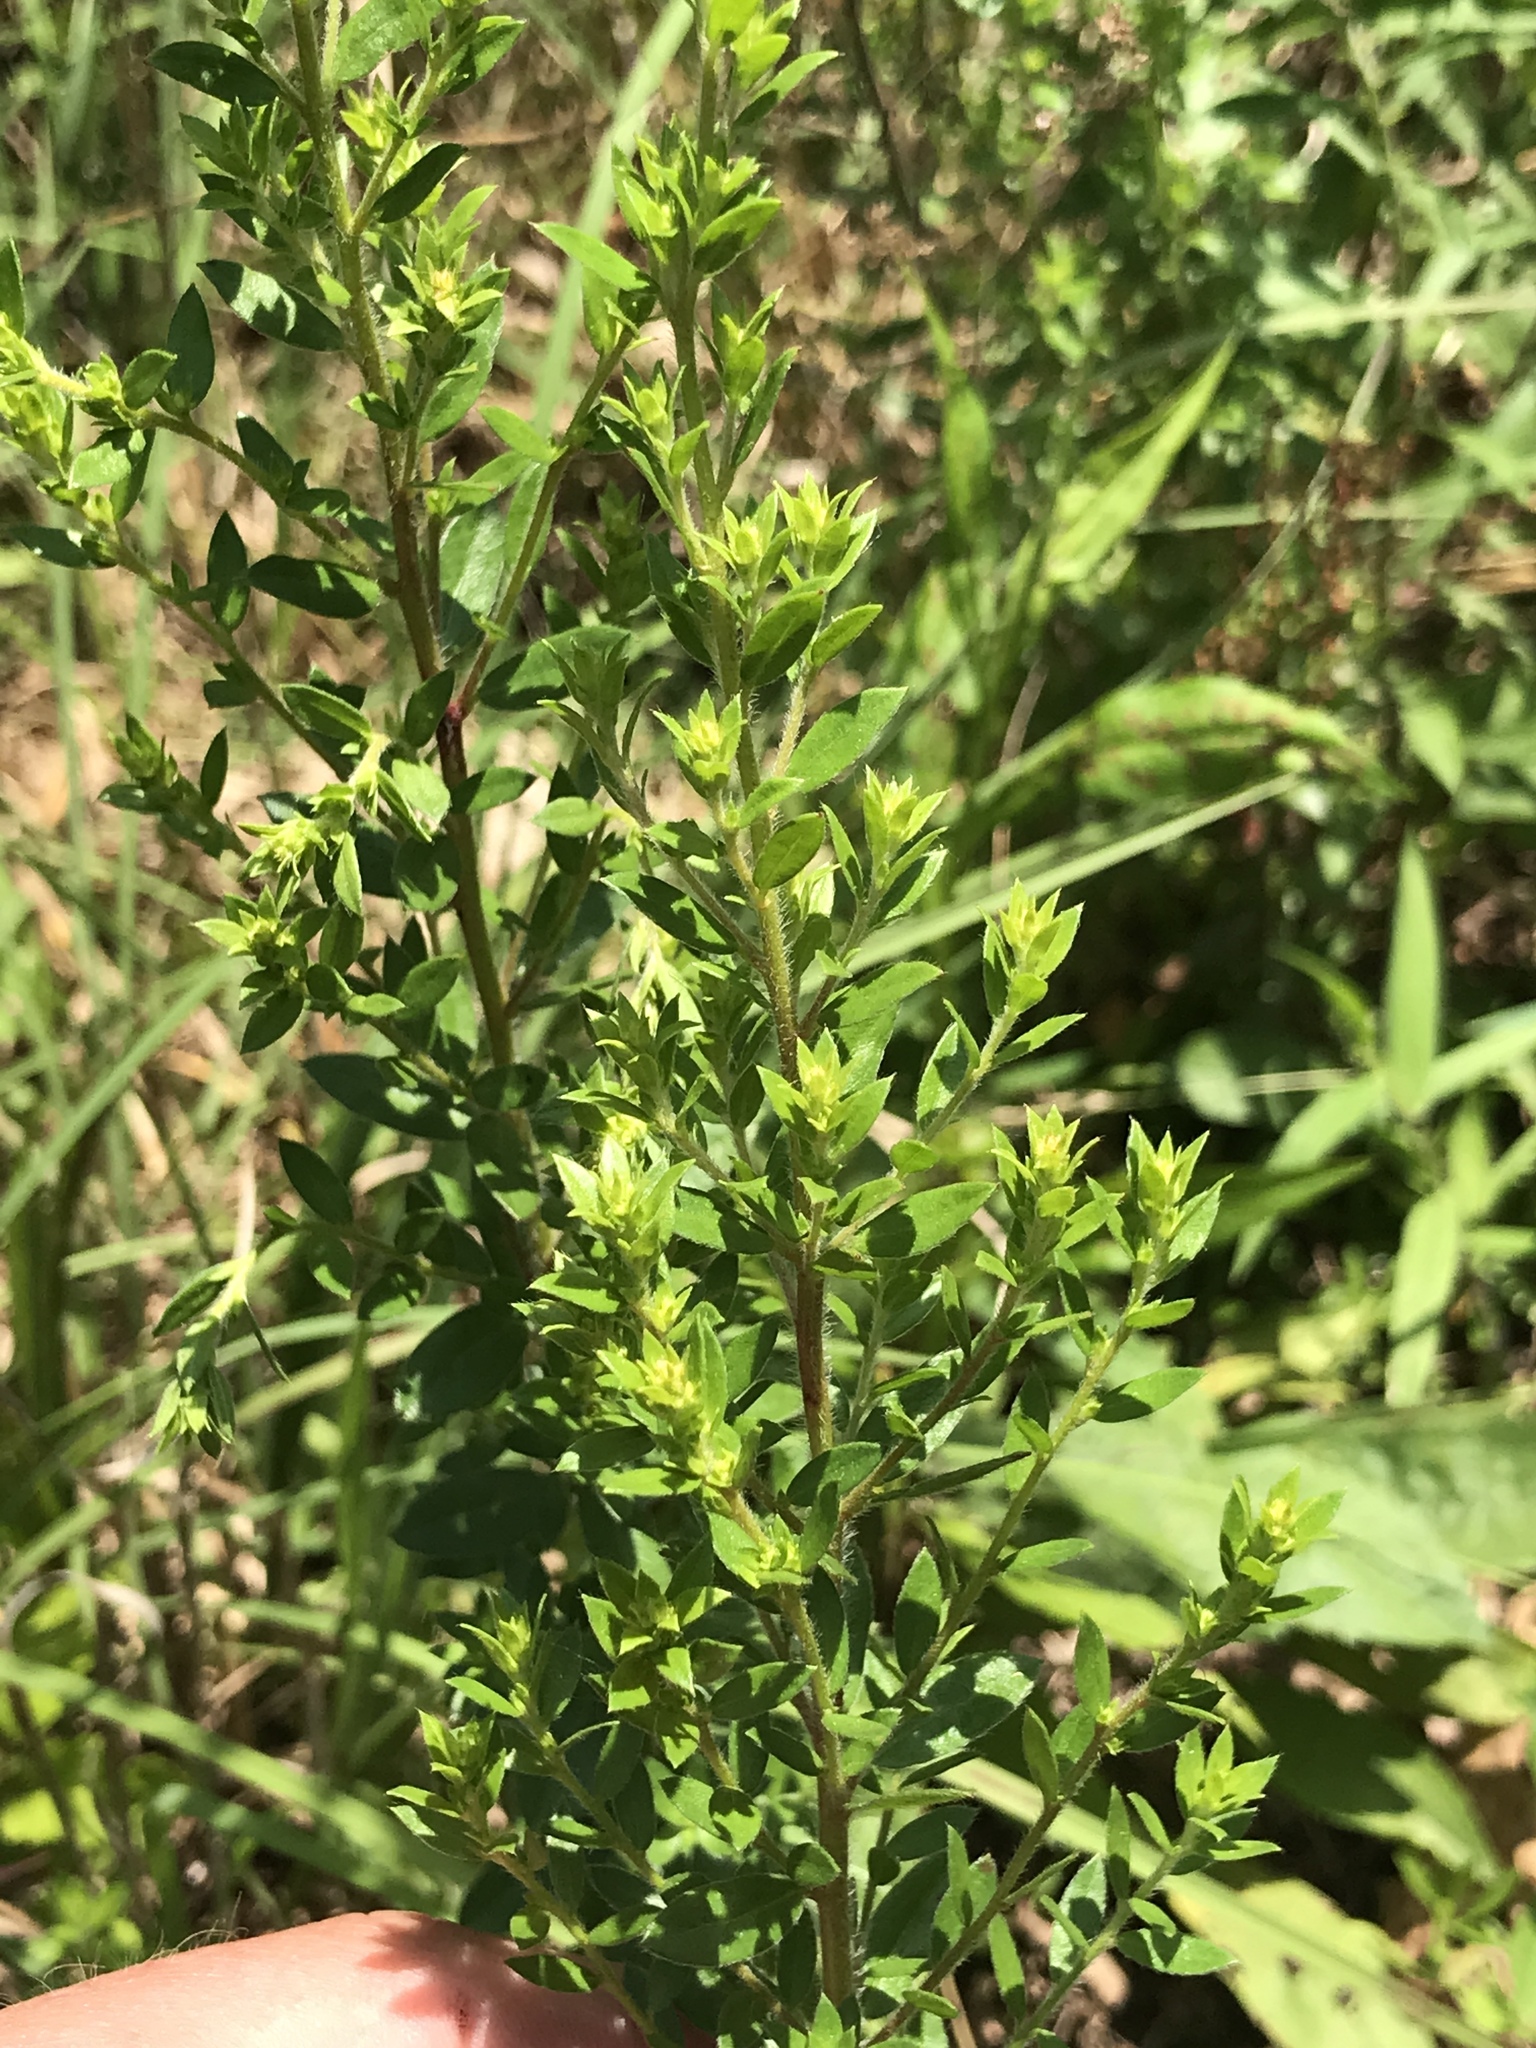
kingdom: Plantae
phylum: Tracheophyta
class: Magnoliopsida
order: Malvales
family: Cistaceae
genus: Lechea
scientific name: Lechea mucronata
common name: Hairy pinweed
